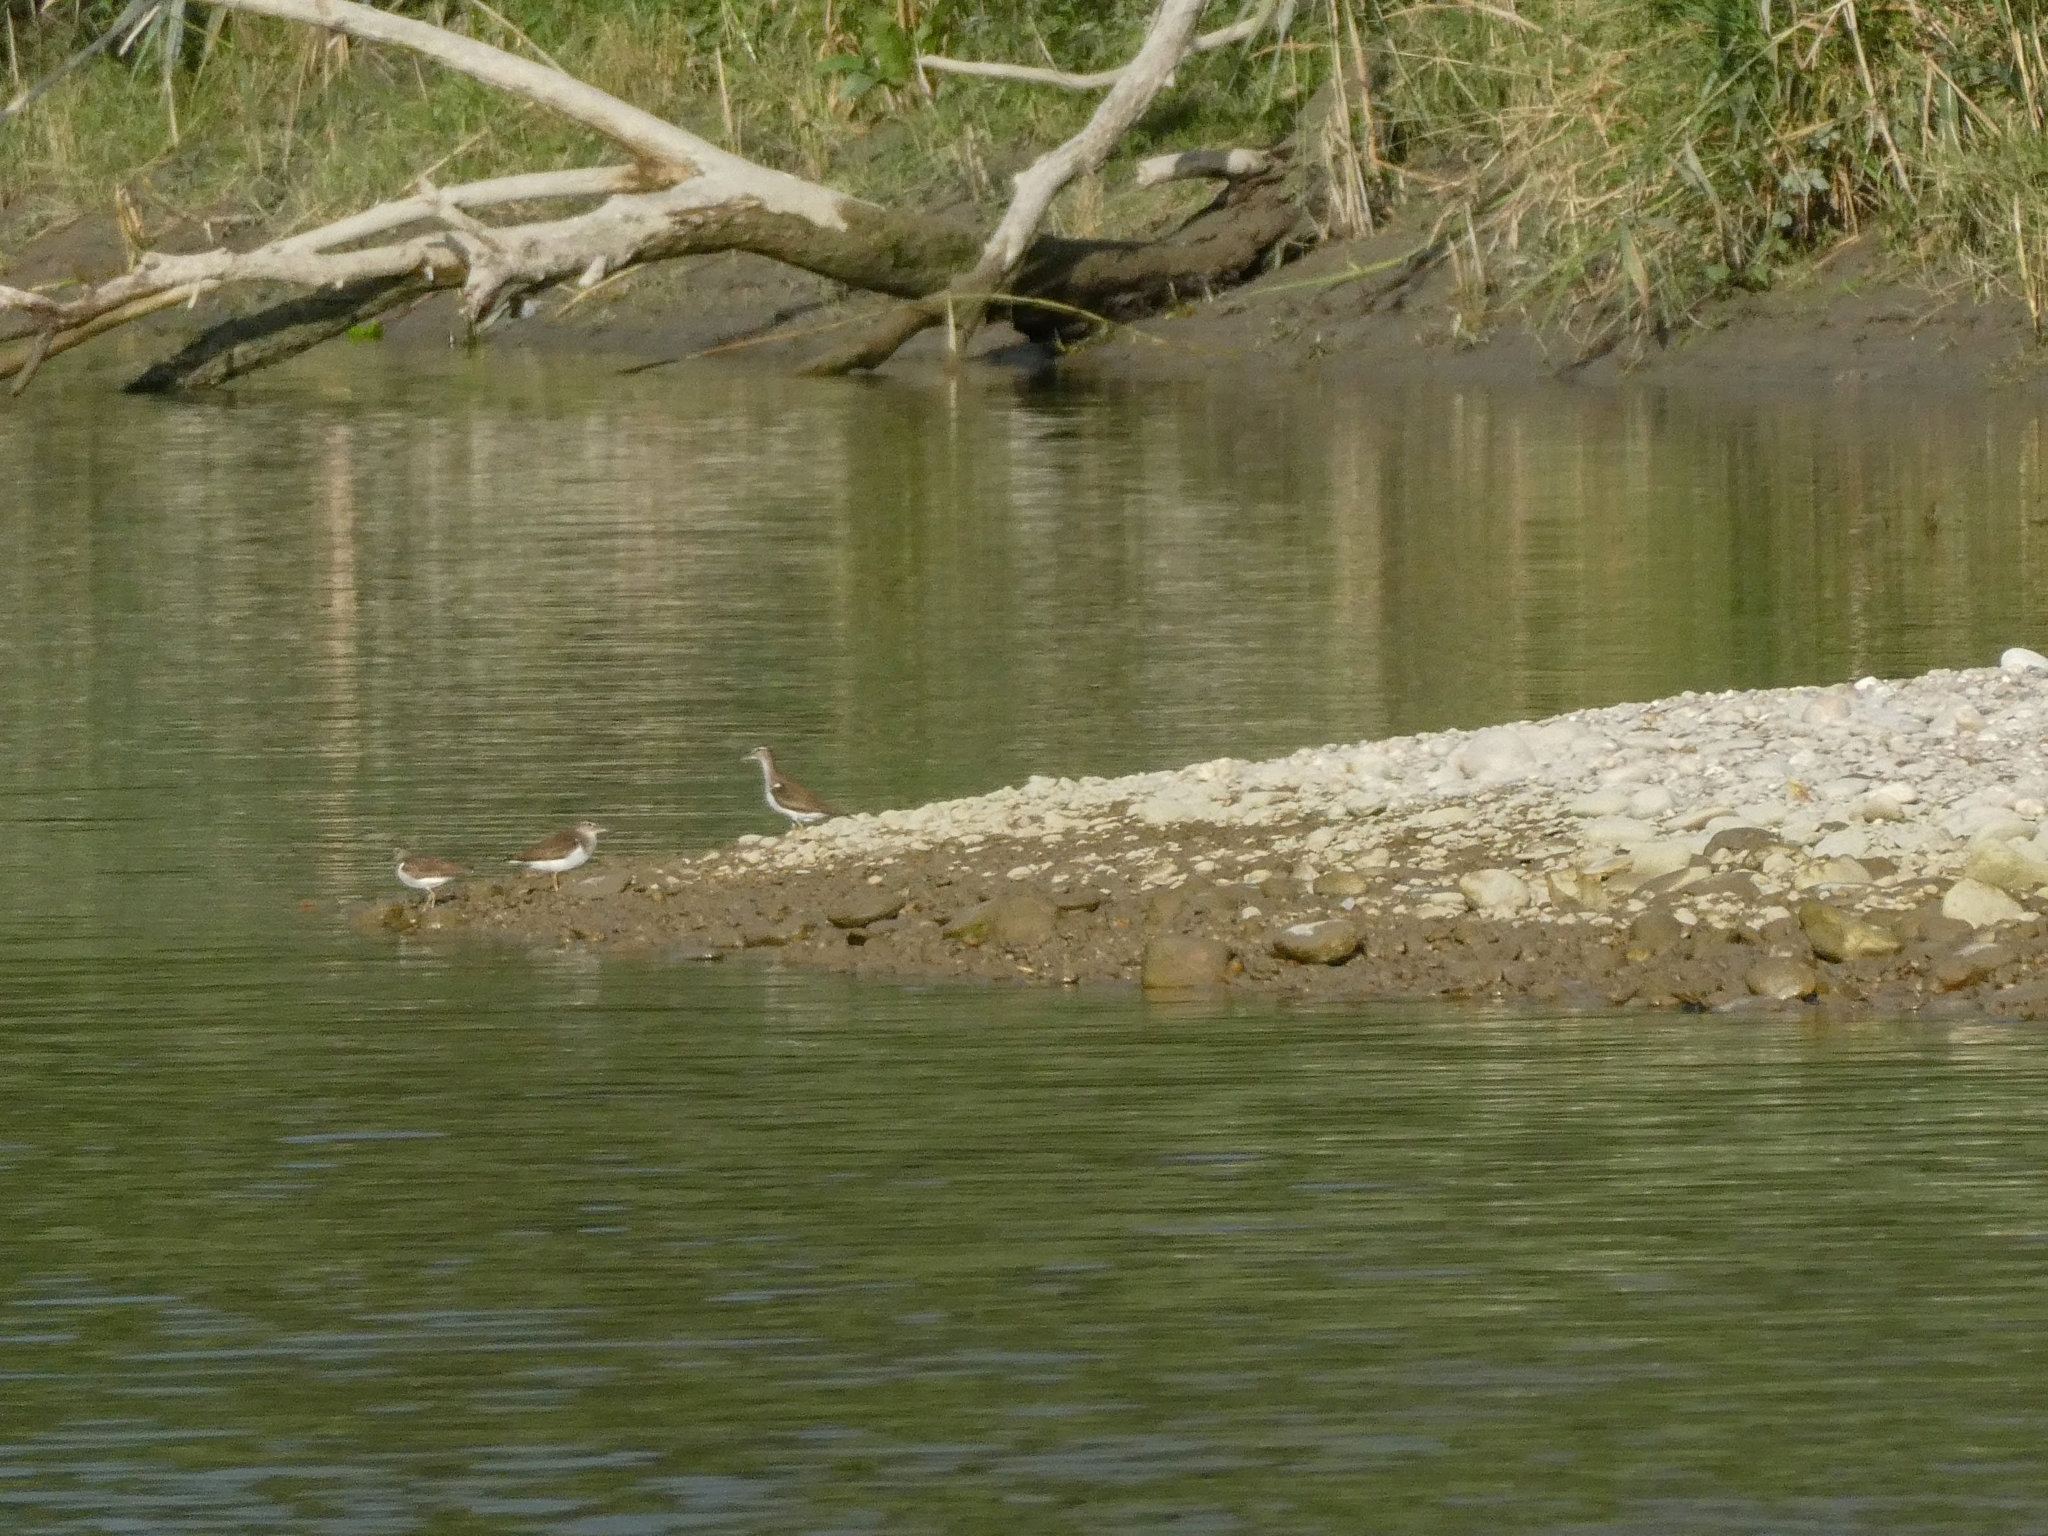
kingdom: Animalia
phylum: Chordata
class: Aves
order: Charadriiformes
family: Scolopacidae
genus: Actitis
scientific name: Actitis hypoleucos
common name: Common sandpiper
